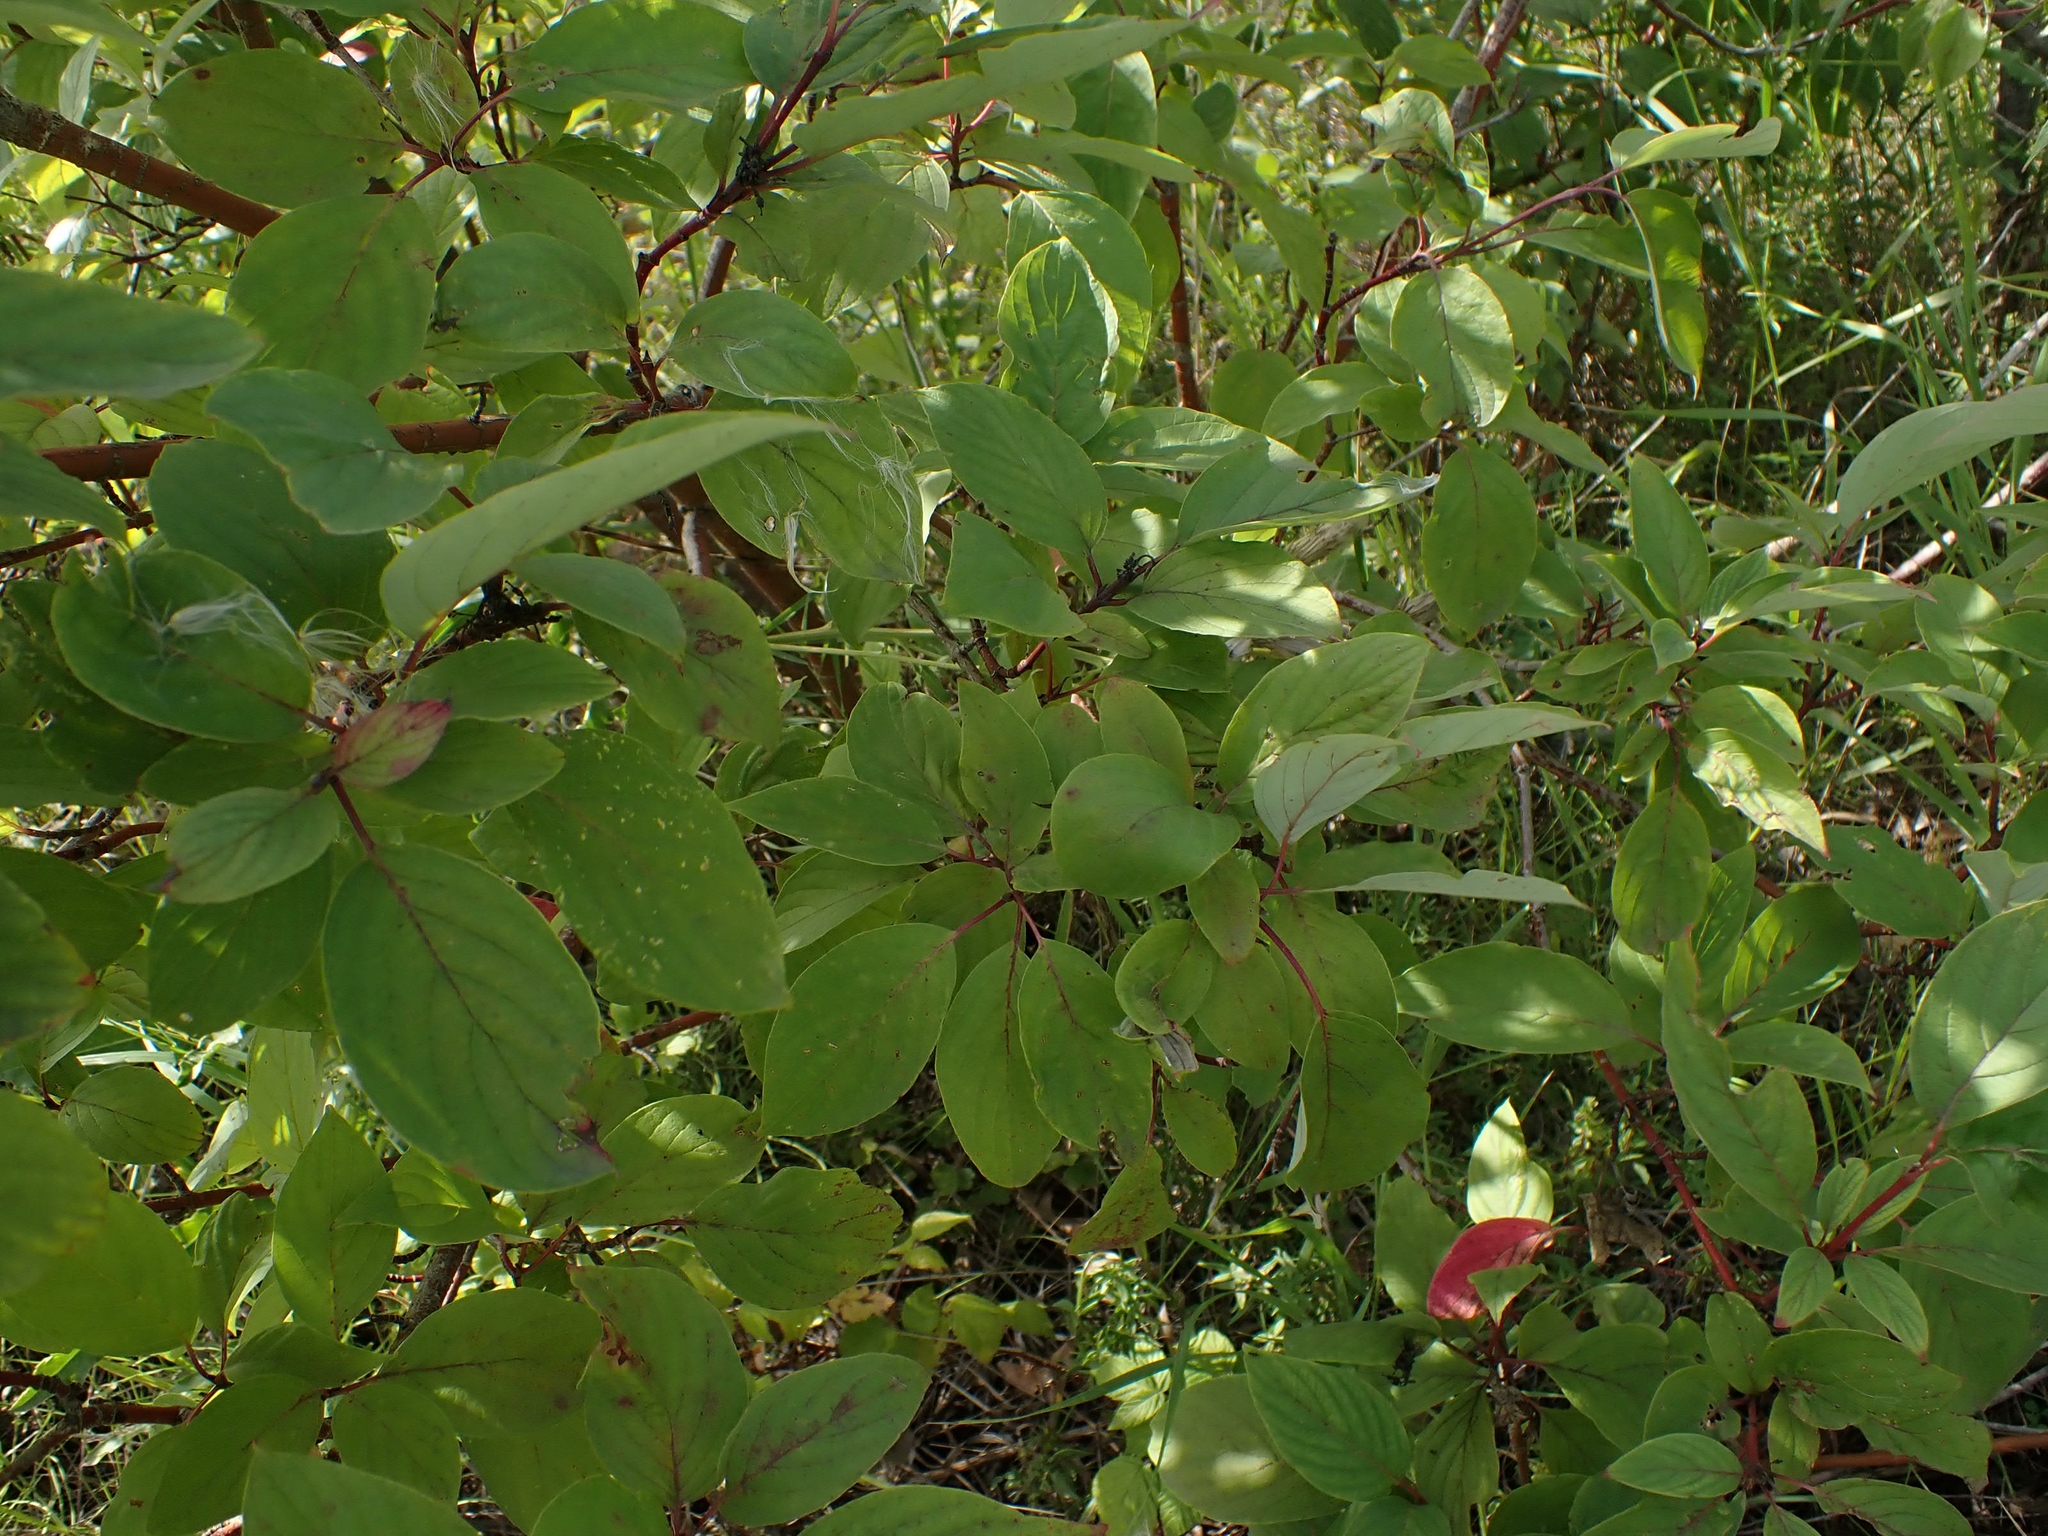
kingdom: Plantae
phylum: Tracheophyta
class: Magnoliopsida
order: Cornales
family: Cornaceae
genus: Cornus
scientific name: Cornus sericea
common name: Red-osier dogwood
